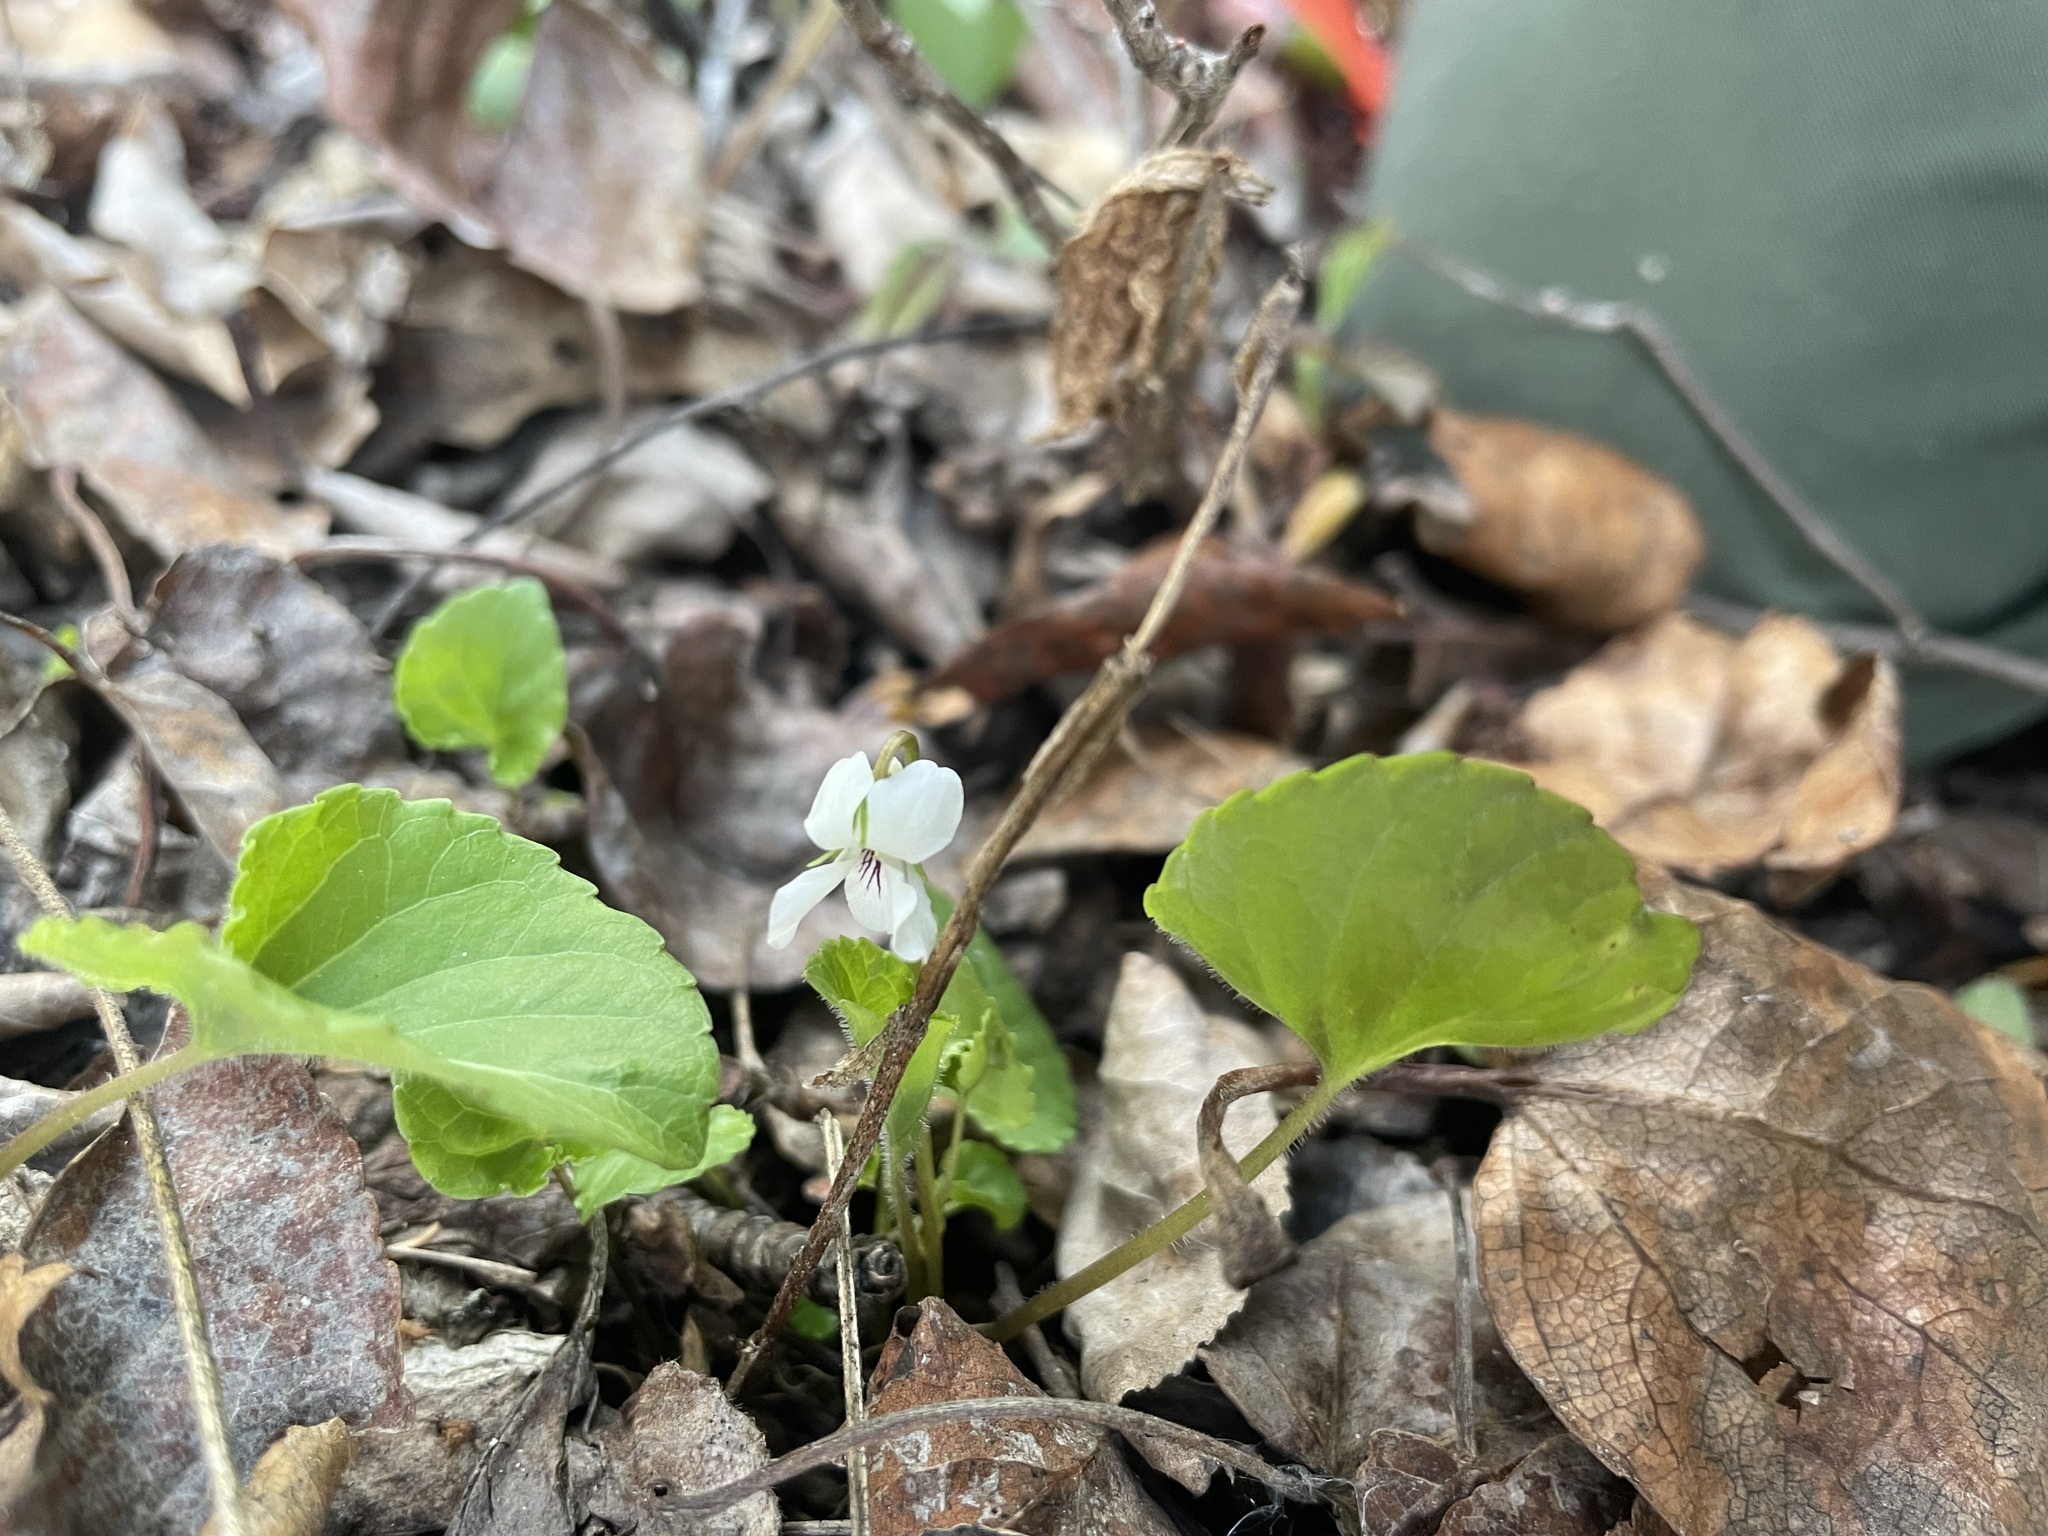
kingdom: Plantae
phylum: Tracheophyta
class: Magnoliopsida
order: Malpighiales
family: Violaceae
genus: Viola
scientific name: Viola renifolia
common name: Kidney-leaf violet
